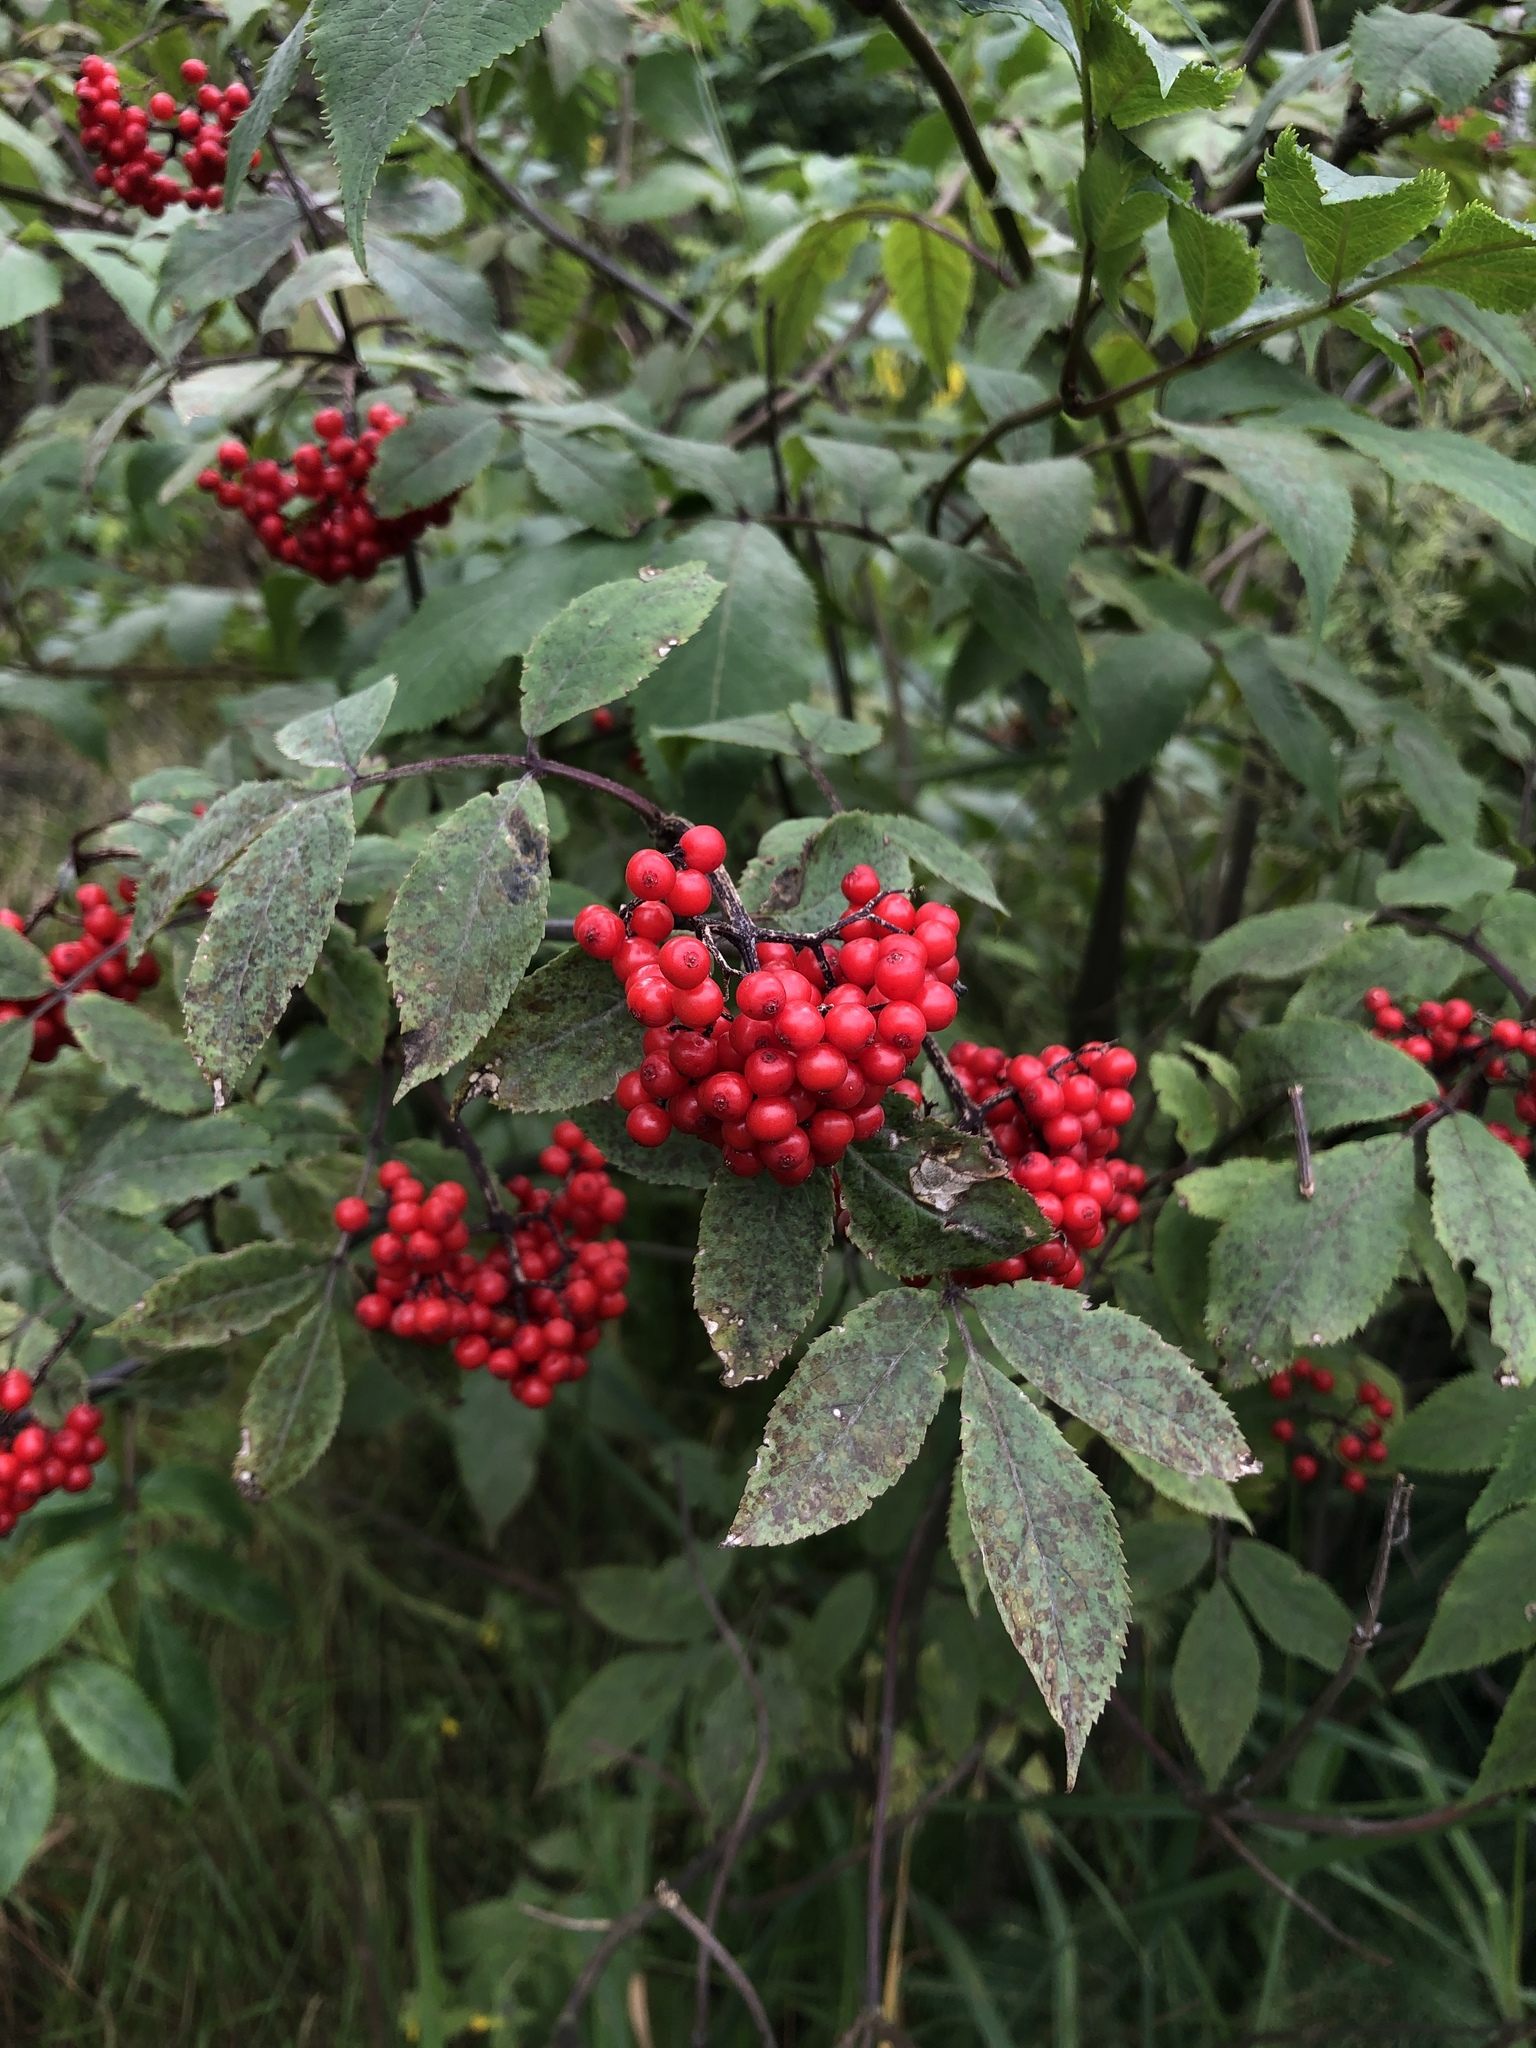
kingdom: Plantae
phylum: Tracheophyta
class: Magnoliopsida
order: Dipsacales
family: Viburnaceae
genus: Sambucus
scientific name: Sambucus racemosa
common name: Red-berried elder
